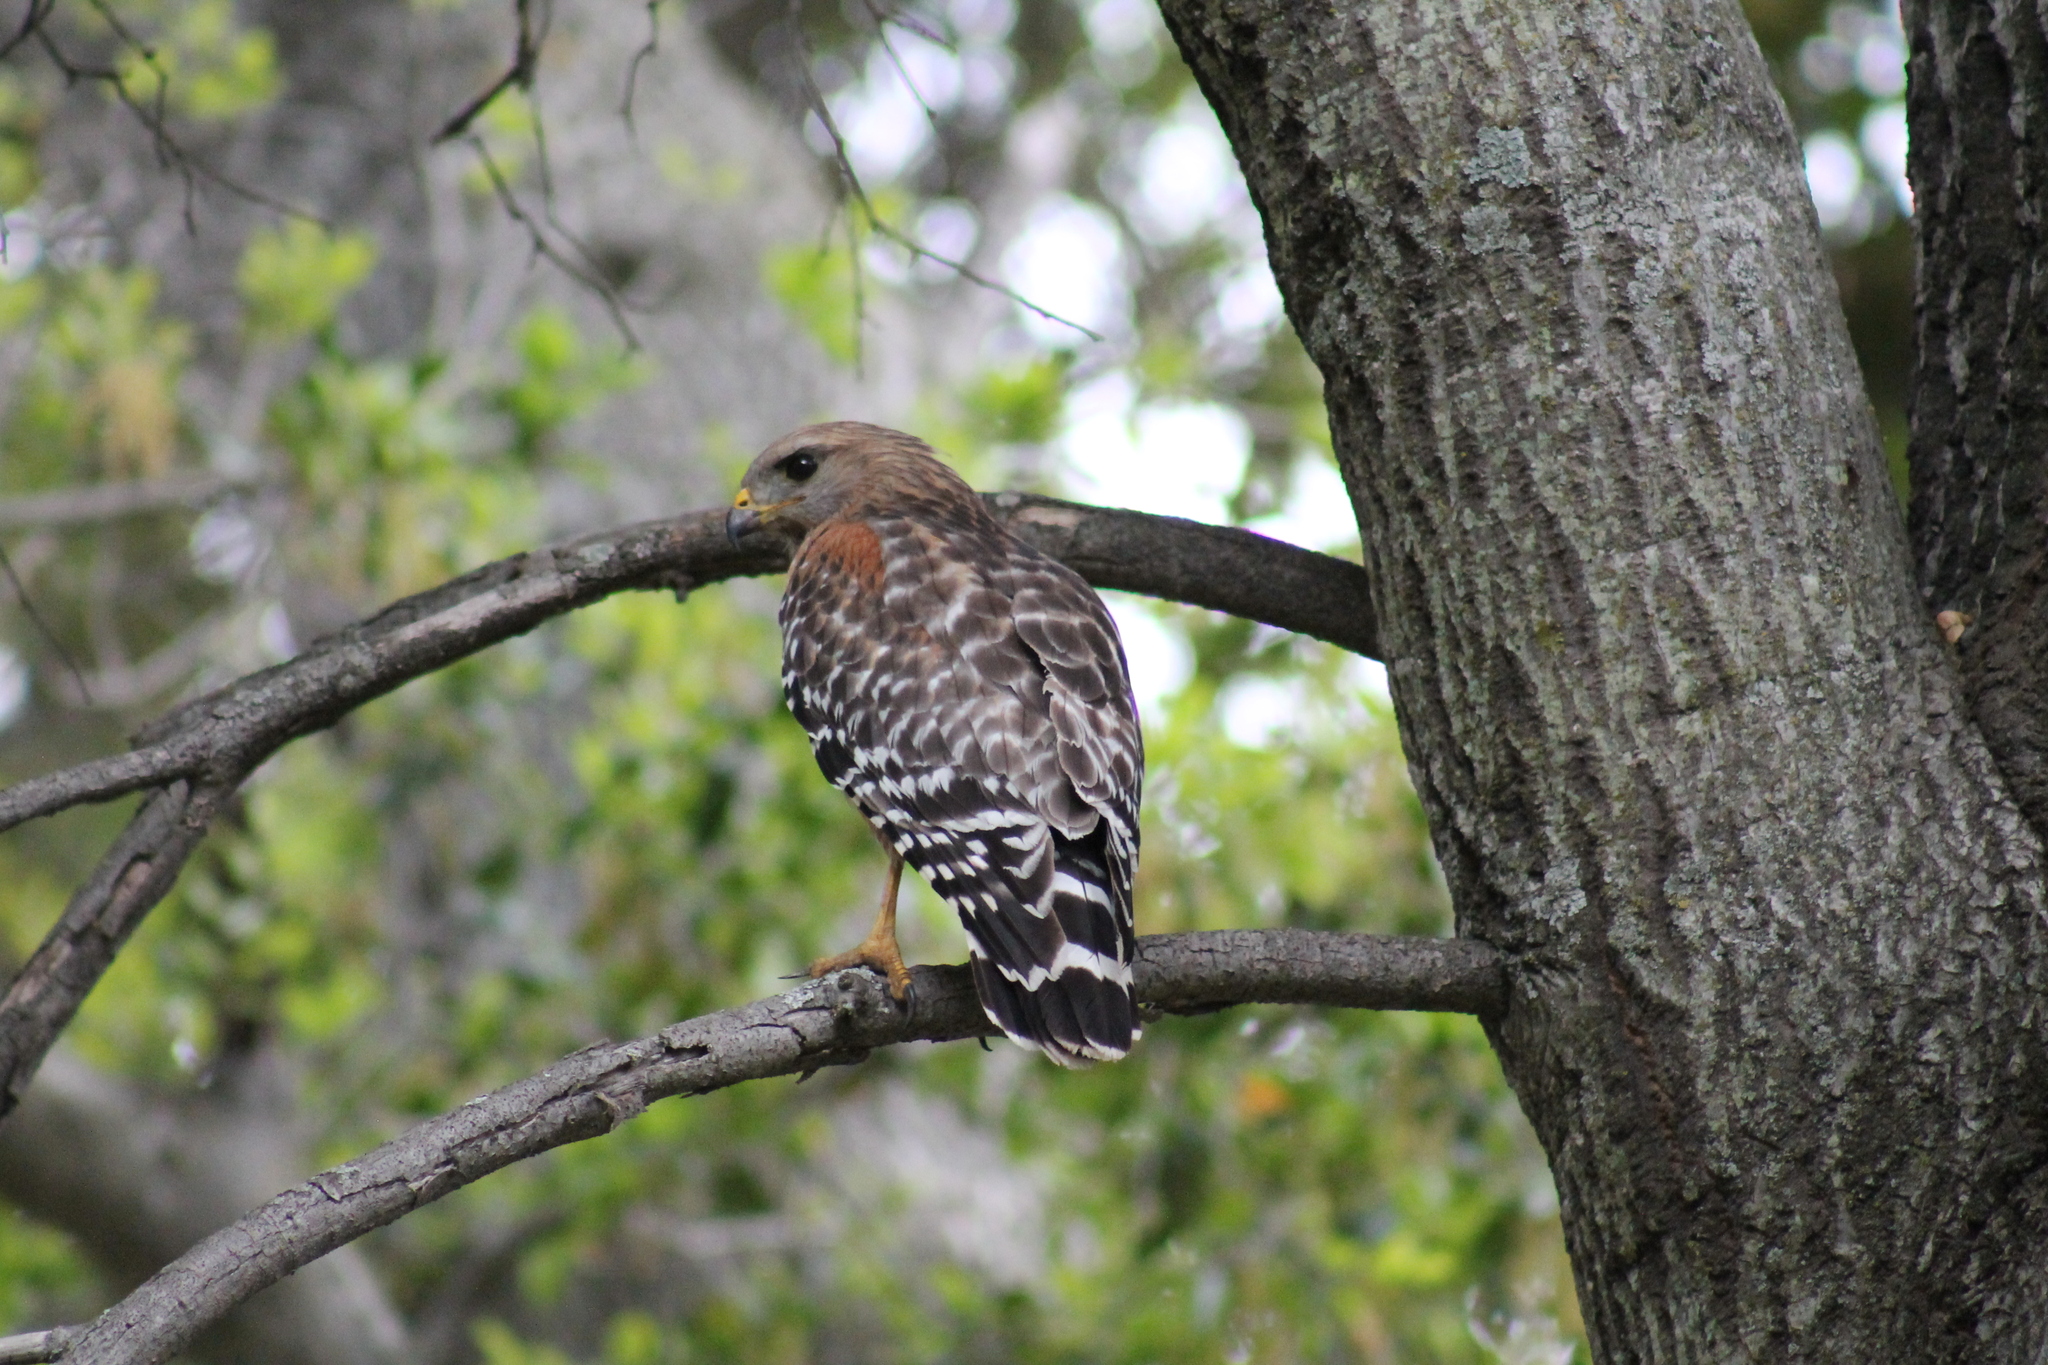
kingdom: Animalia
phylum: Chordata
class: Aves
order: Accipitriformes
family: Accipitridae
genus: Buteo
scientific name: Buteo lineatus
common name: Red-shouldered hawk
